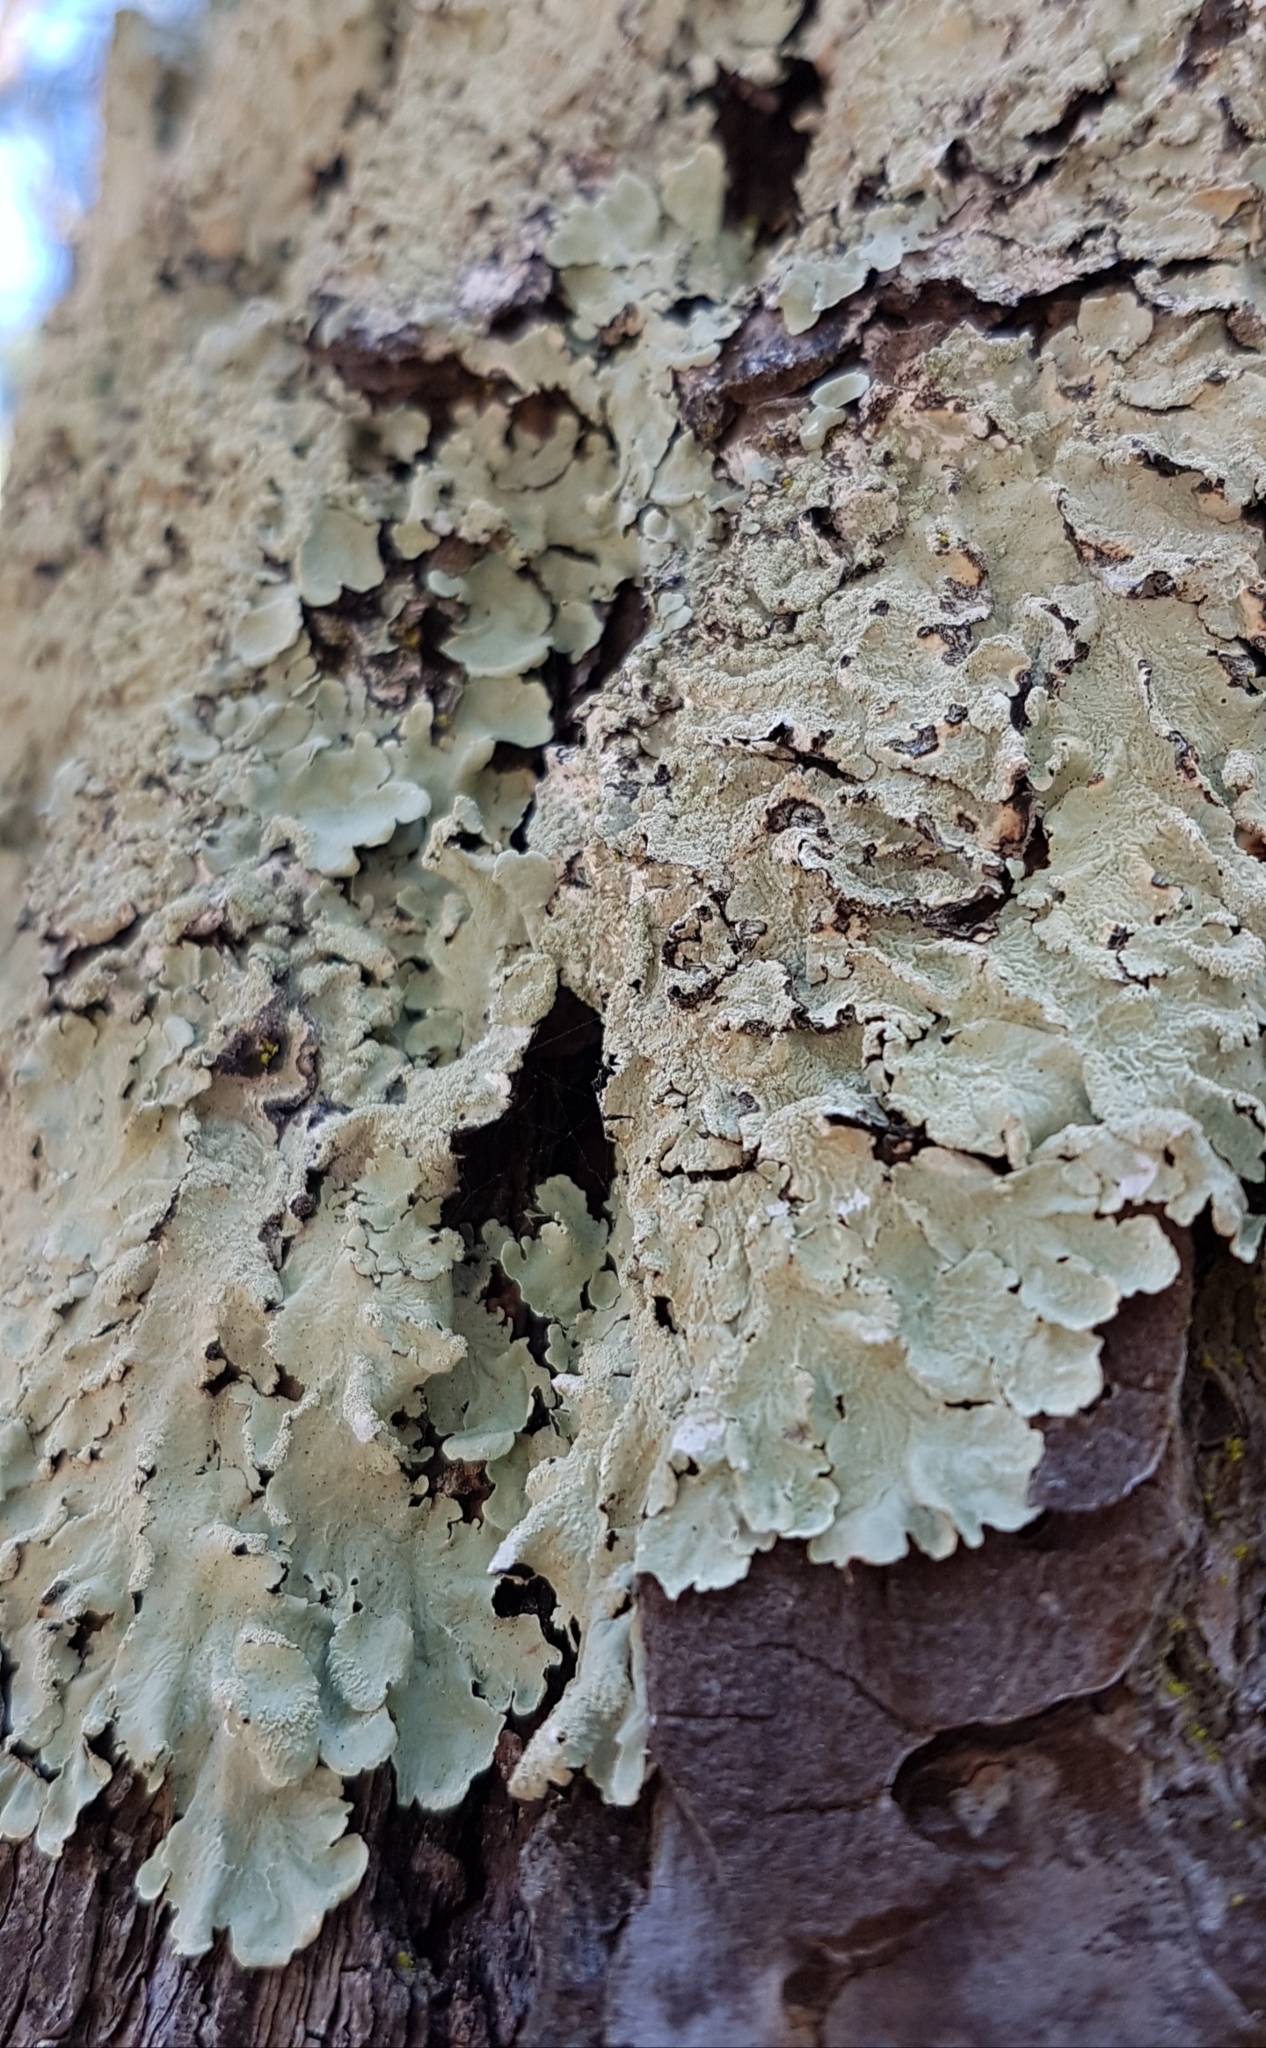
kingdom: Fungi
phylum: Ascomycota
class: Lecanoromycetes
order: Lecanorales
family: Parmeliaceae
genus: Flavoparmelia
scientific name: Flavoparmelia
